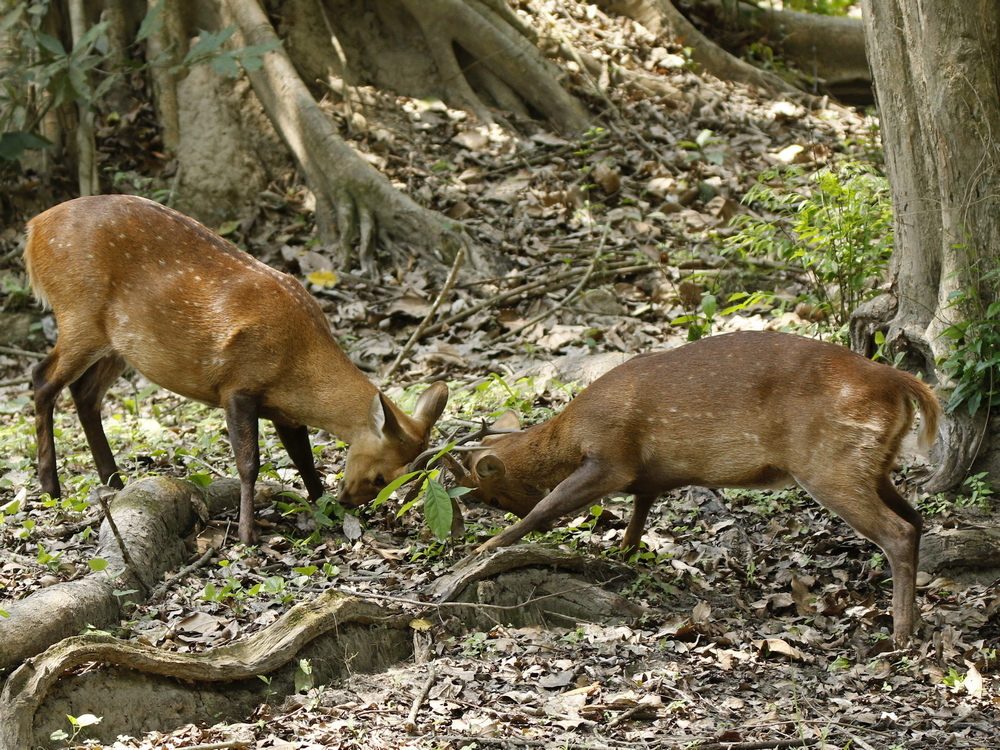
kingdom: Animalia
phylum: Chordata
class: Mammalia
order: Artiodactyla
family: Cervidae
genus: Axis
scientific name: Axis porcinus
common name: Hog deer
